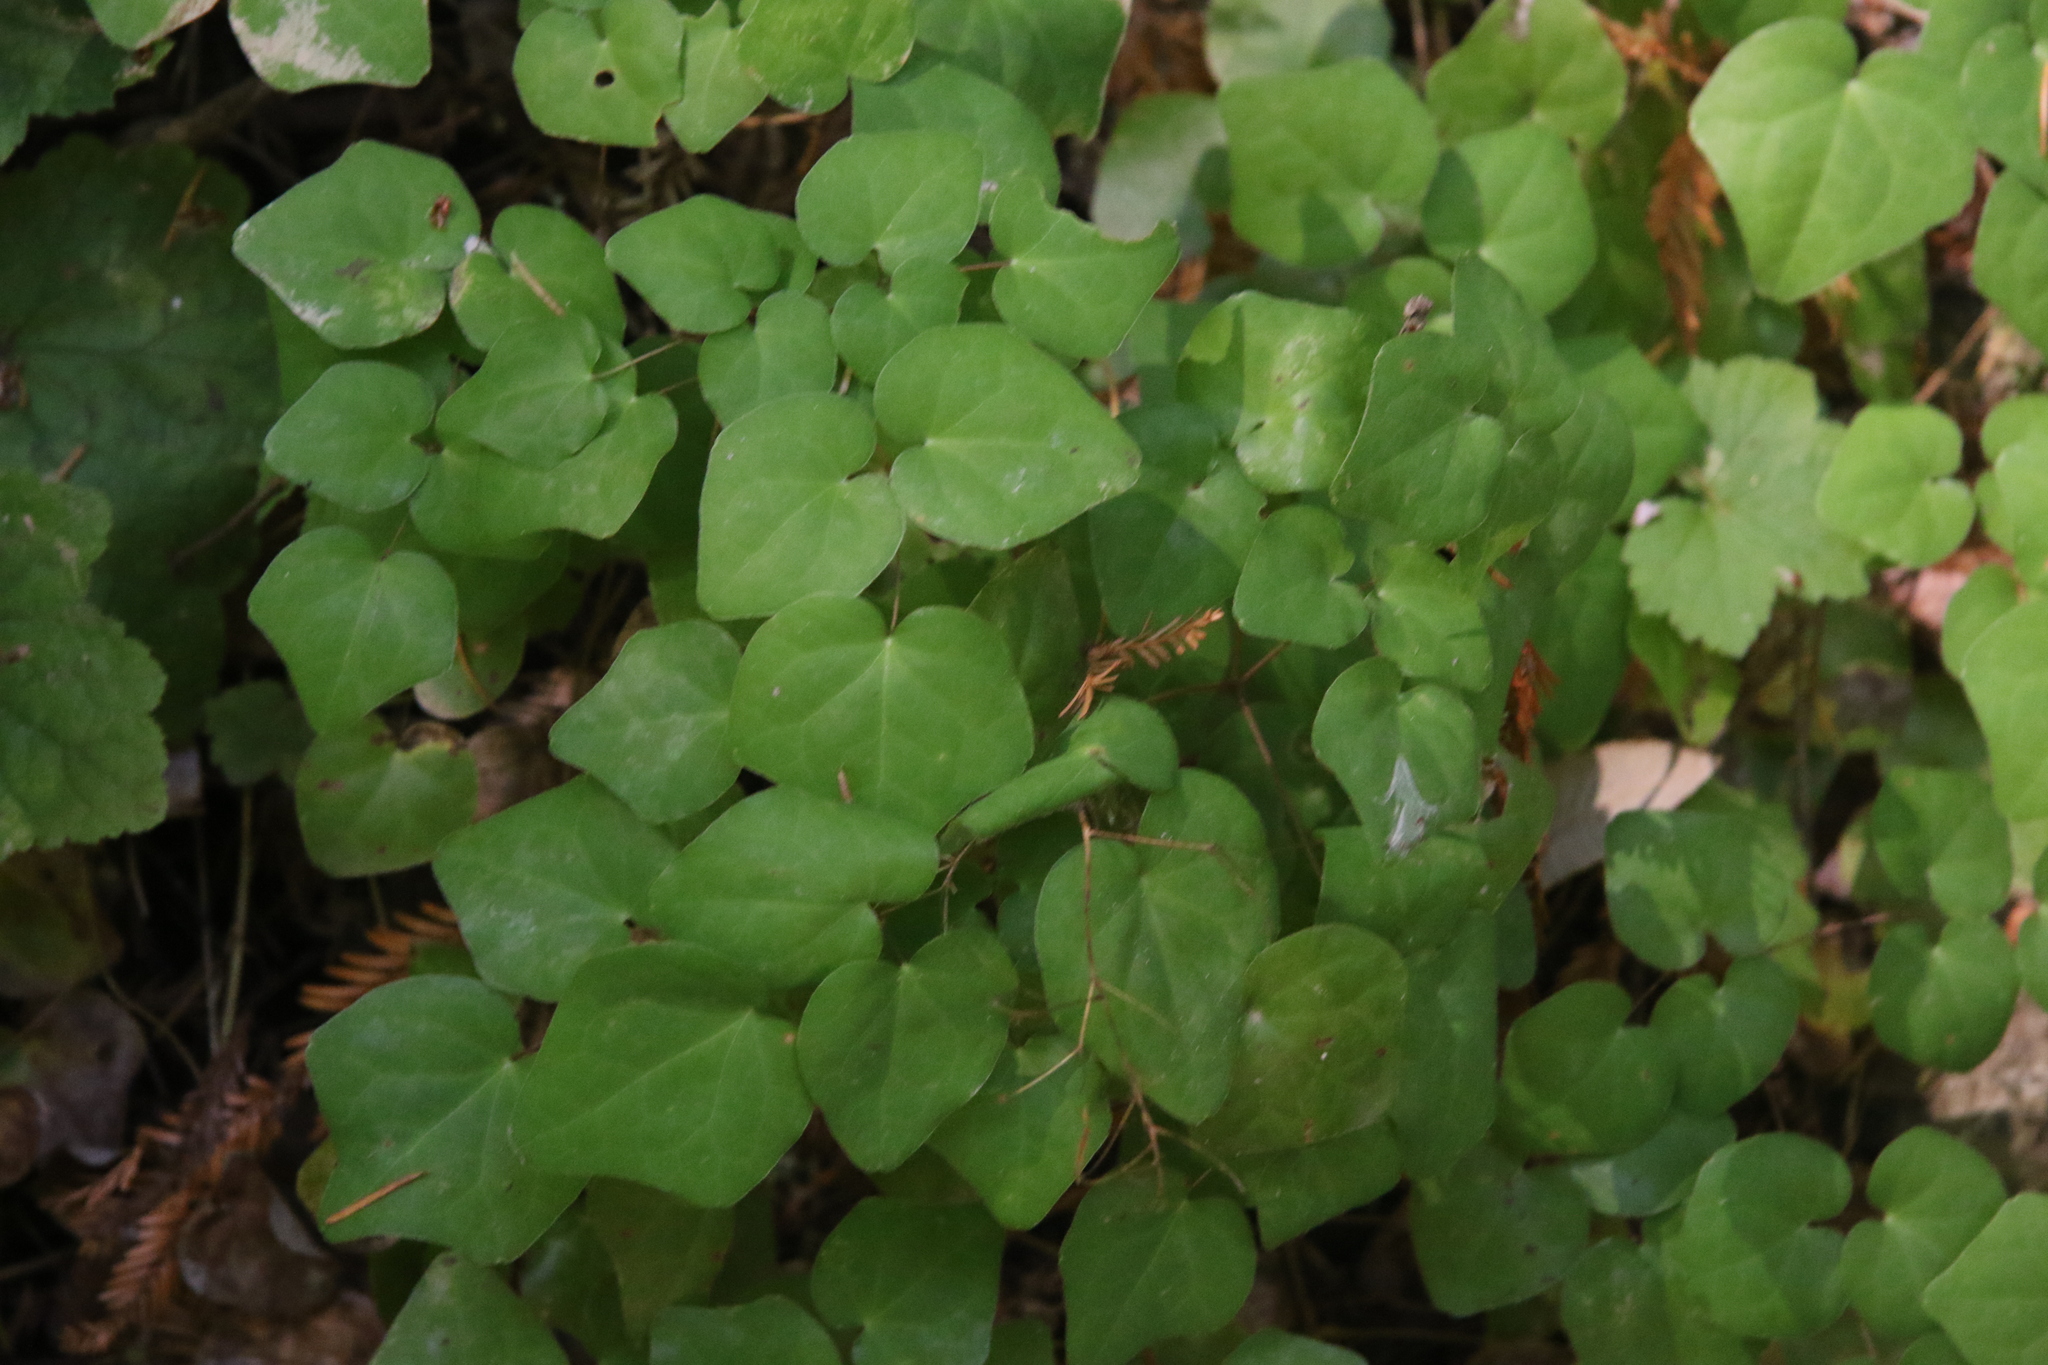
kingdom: Plantae
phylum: Tracheophyta
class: Magnoliopsida
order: Ranunculales
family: Berberidaceae
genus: Vancouveria
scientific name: Vancouveria planipetala
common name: Redwood-ivy
